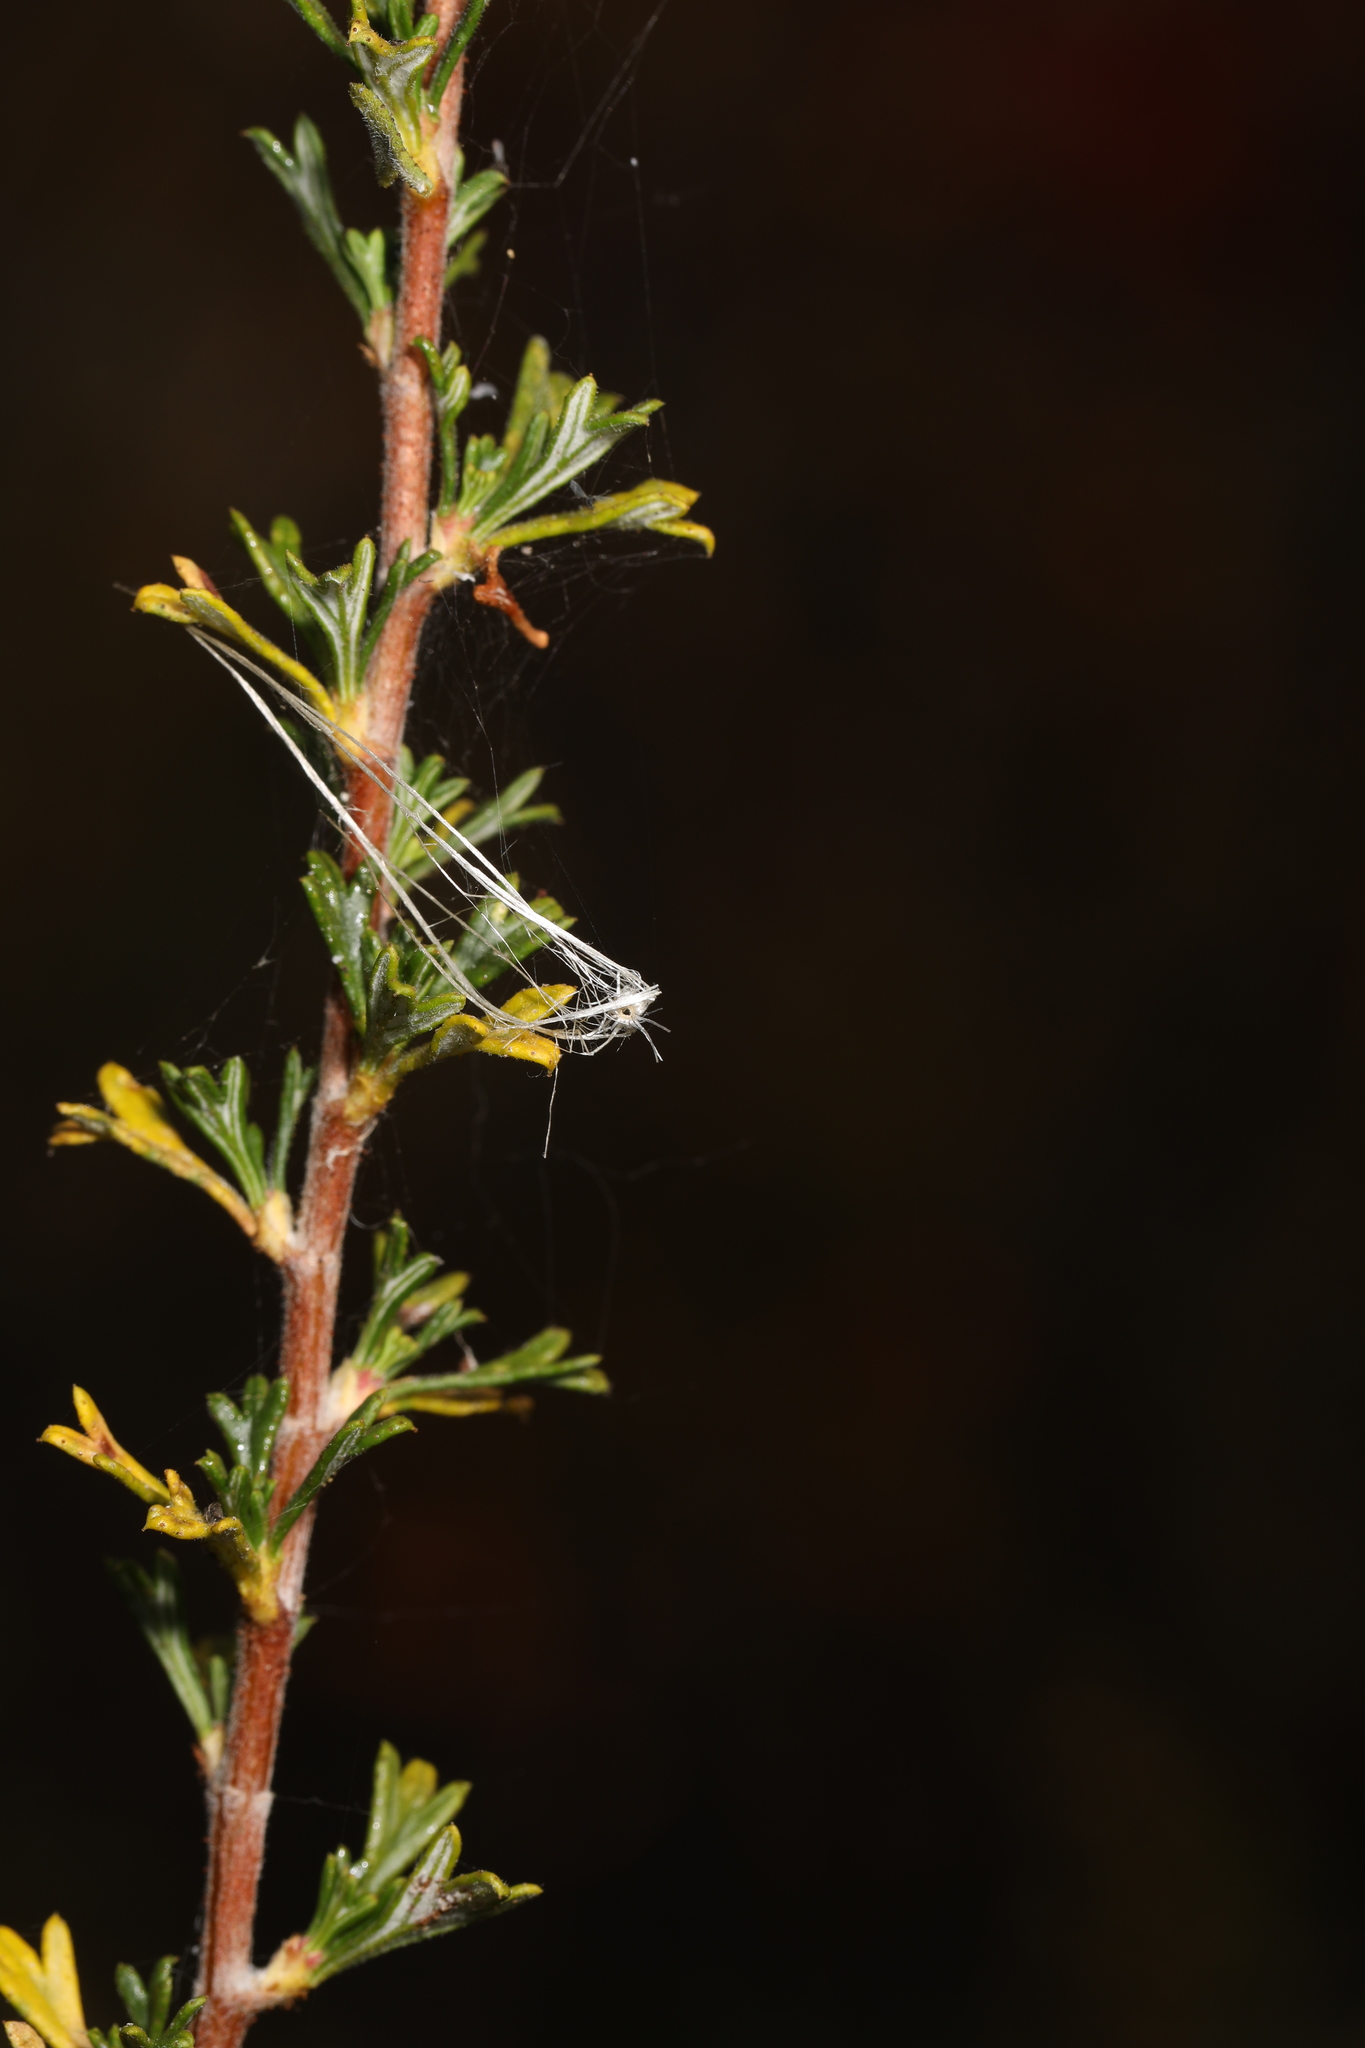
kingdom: Plantae
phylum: Tracheophyta
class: Magnoliopsida
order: Rosales
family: Rosaceae
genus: Purshia
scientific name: Purshia tridentata
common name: Antelope bitterbrush
